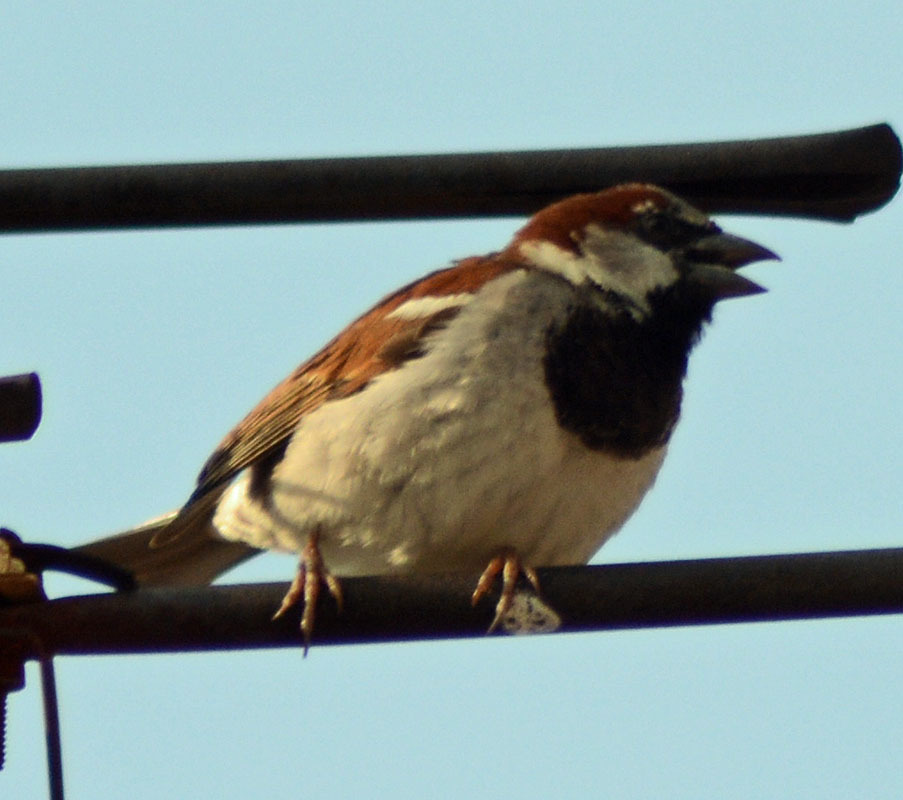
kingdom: Animalia
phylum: Chordata
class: Aves
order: Passeriformes
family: Passeridae
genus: Passer
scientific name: Passer domesticus
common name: House sparrow
